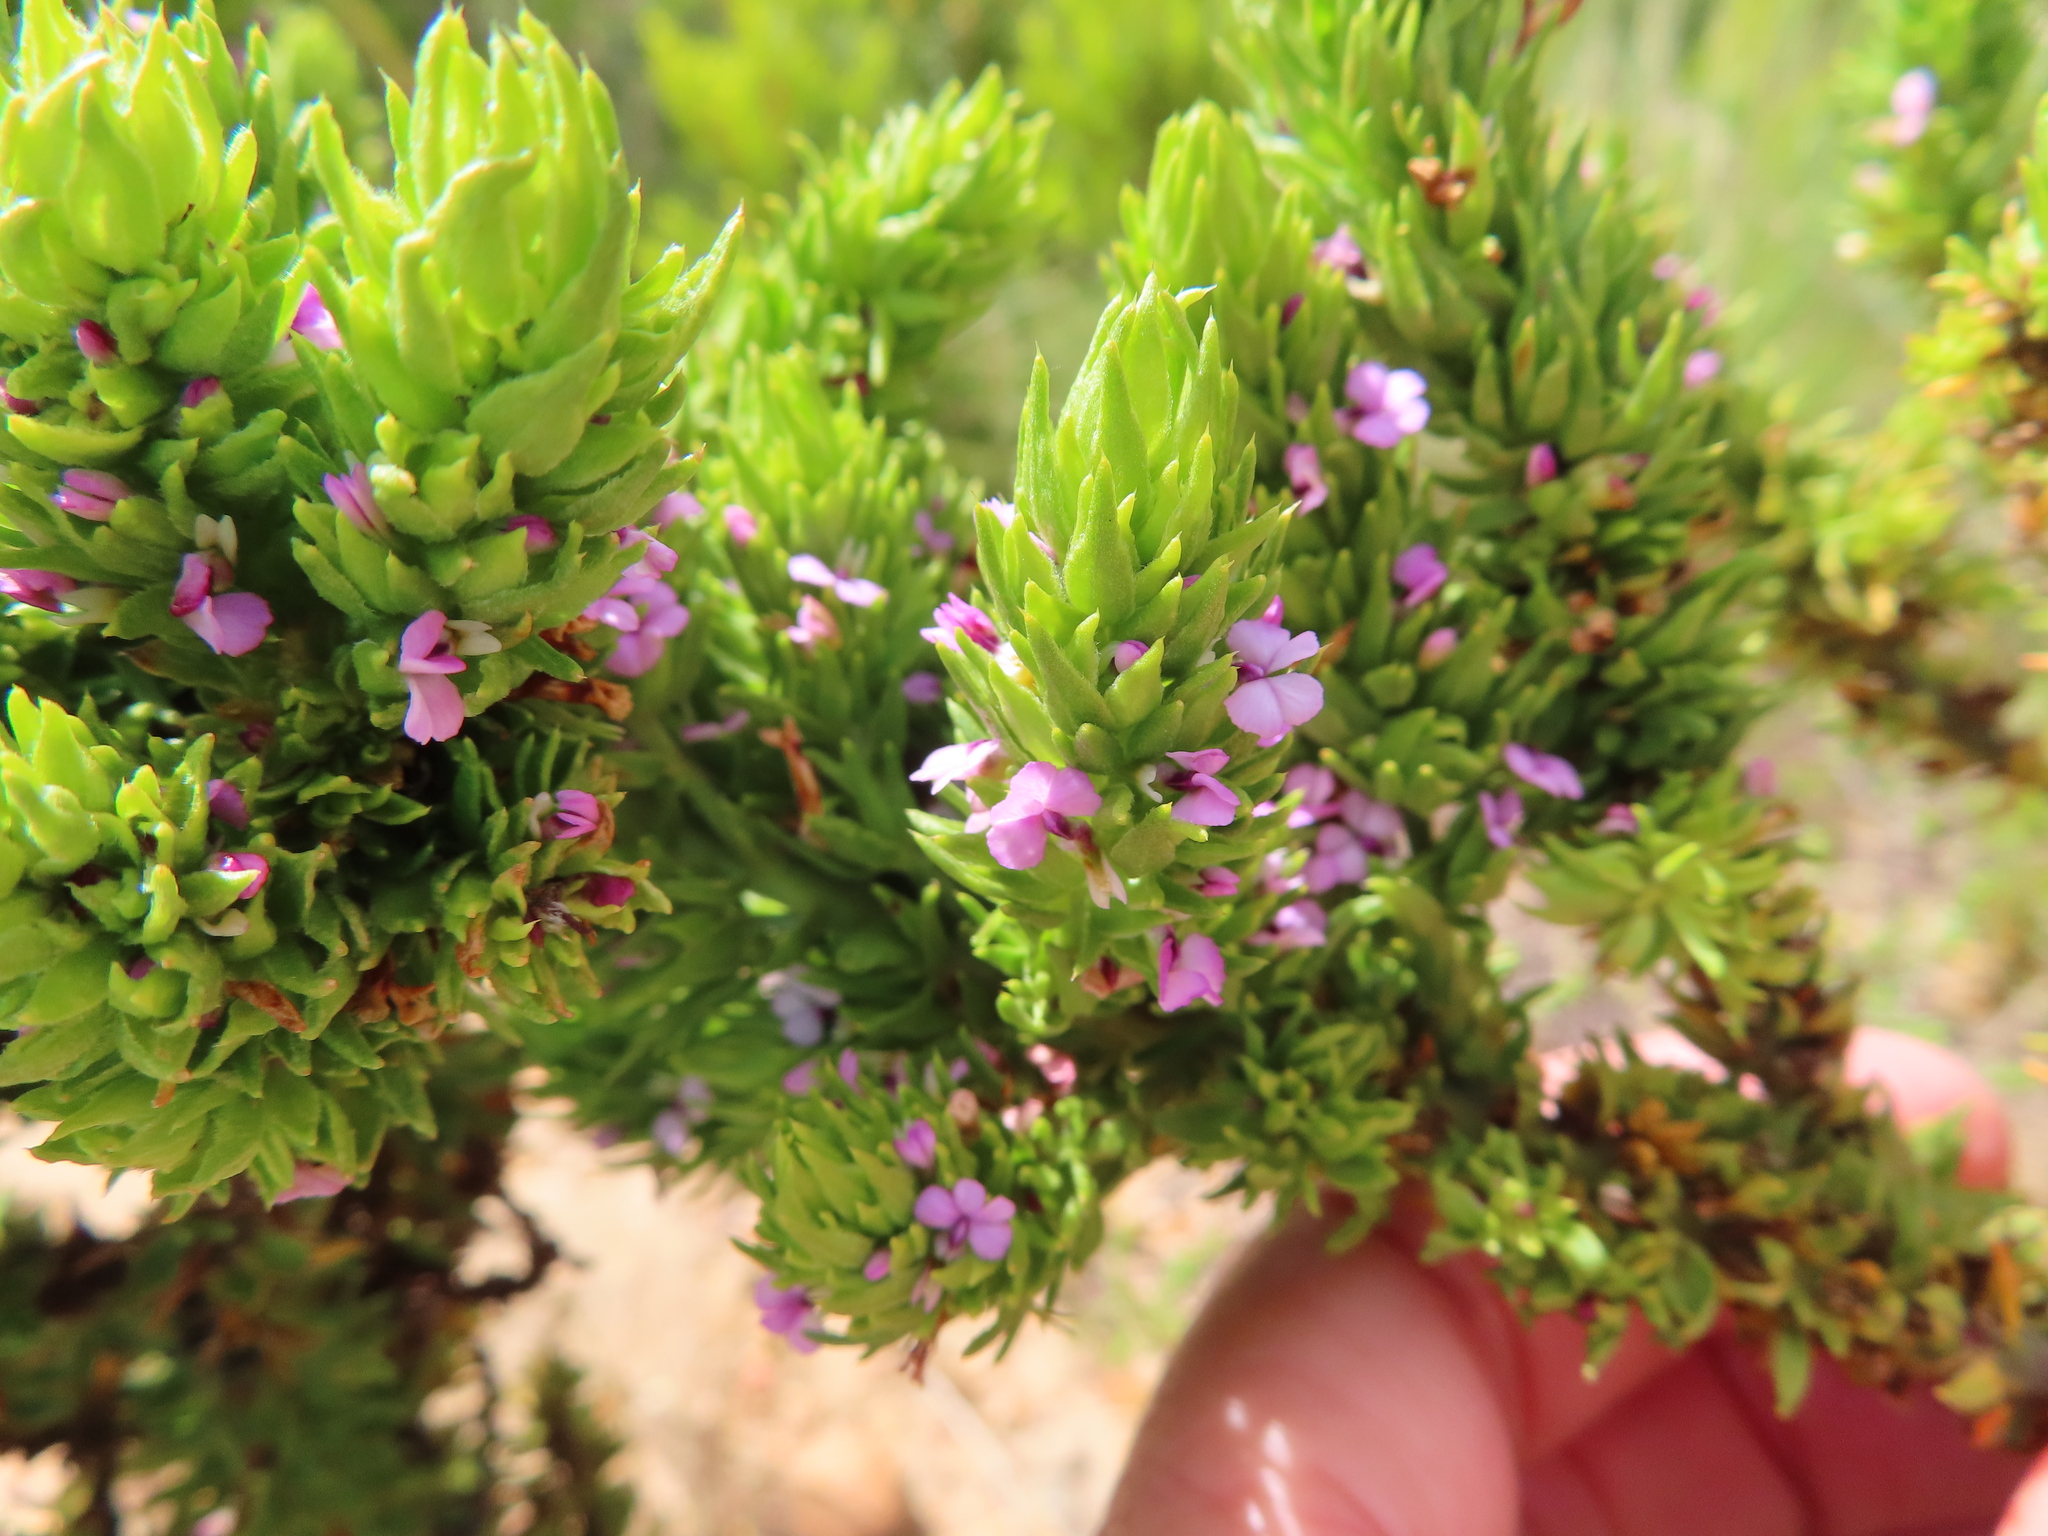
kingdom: Plantae
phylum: Tracheophyta
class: Magnoliopsida
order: Fabales
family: Polygalaceae
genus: Muraltia
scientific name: Muraltia alopecuroides
